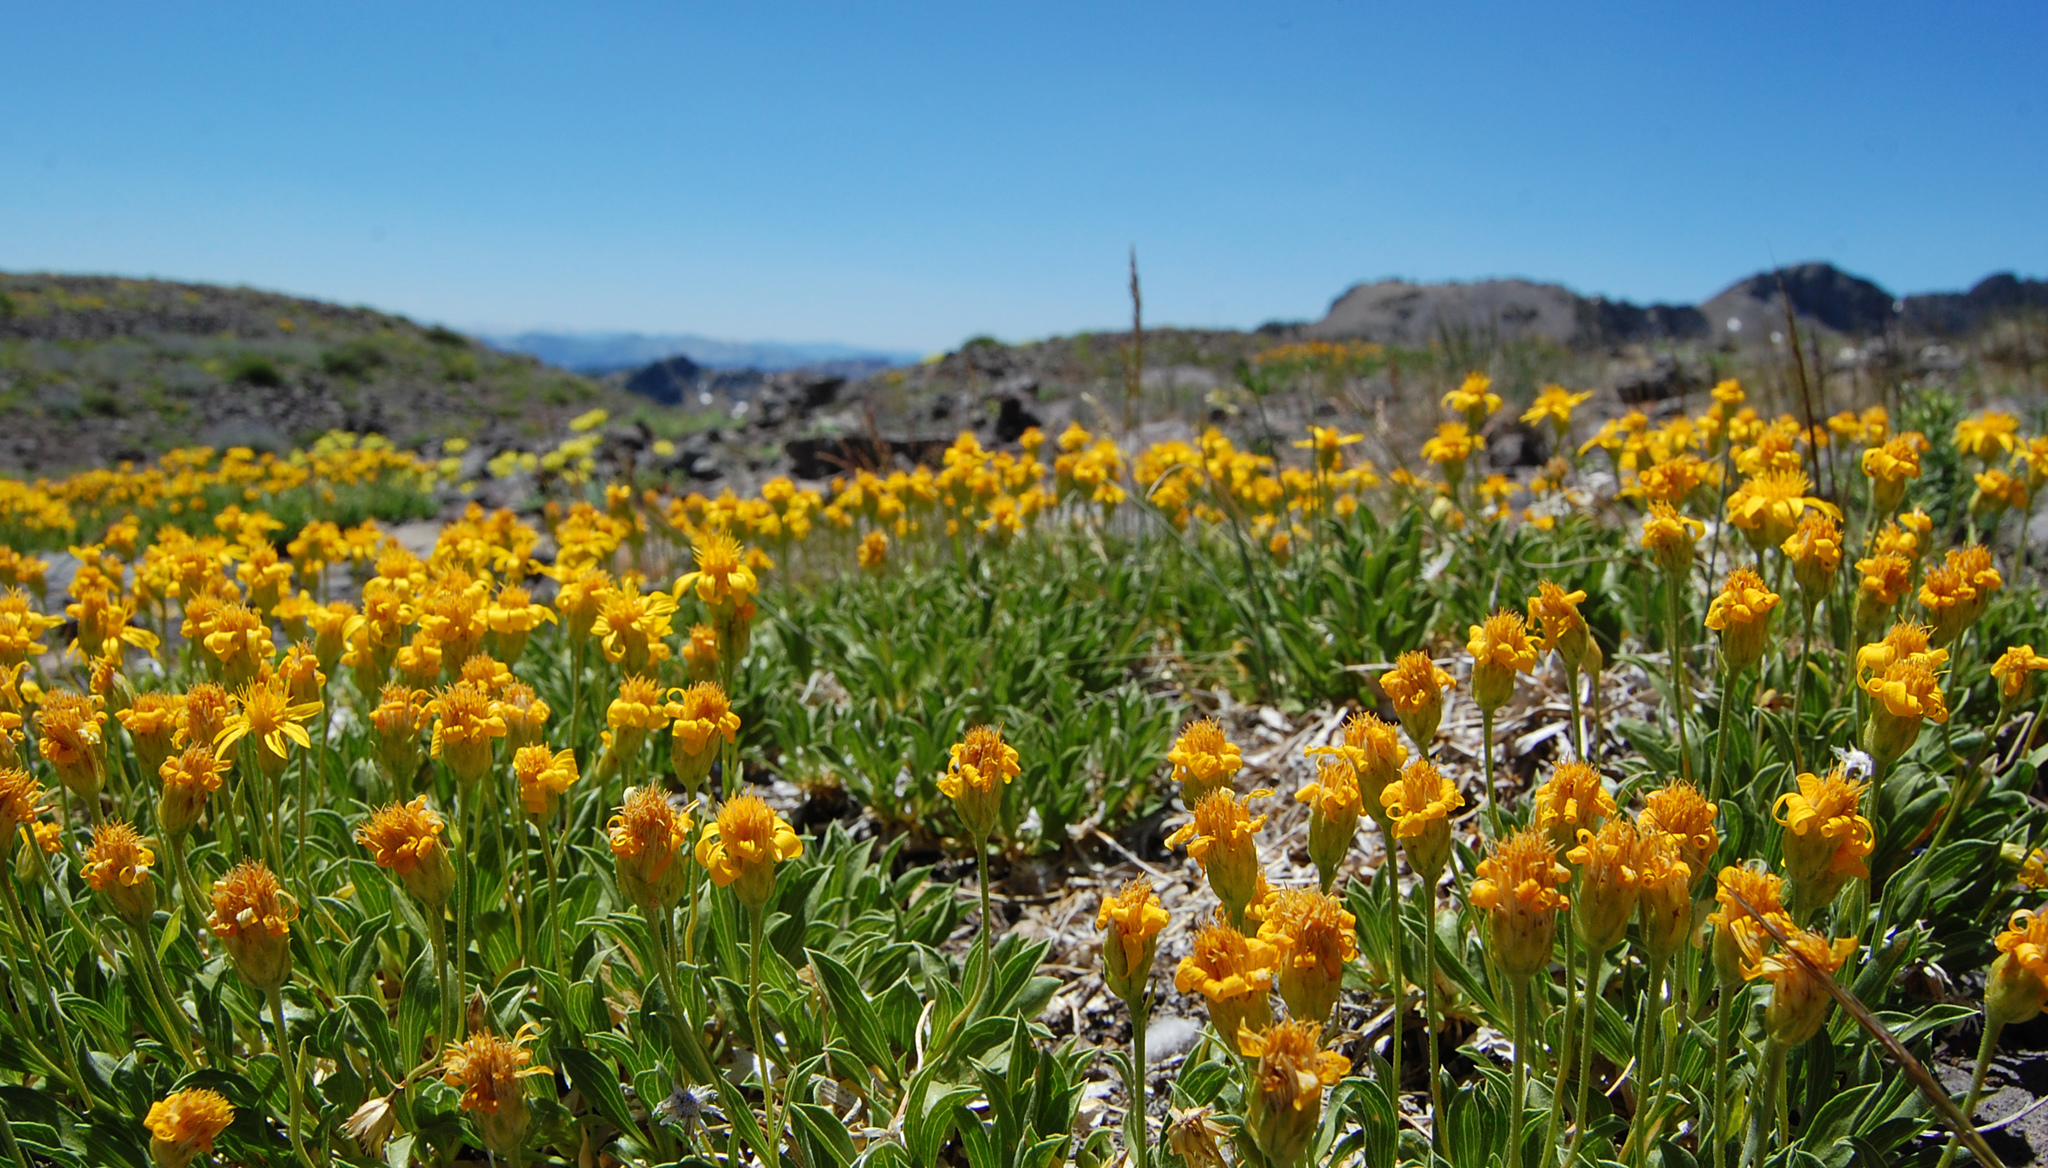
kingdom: Plantae
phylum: Tracheophyta
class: Magnoliopsida
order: Asterales
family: Asteraceae
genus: Stenotus
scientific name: Stenotus acaulis
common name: Stemless goldenweed
